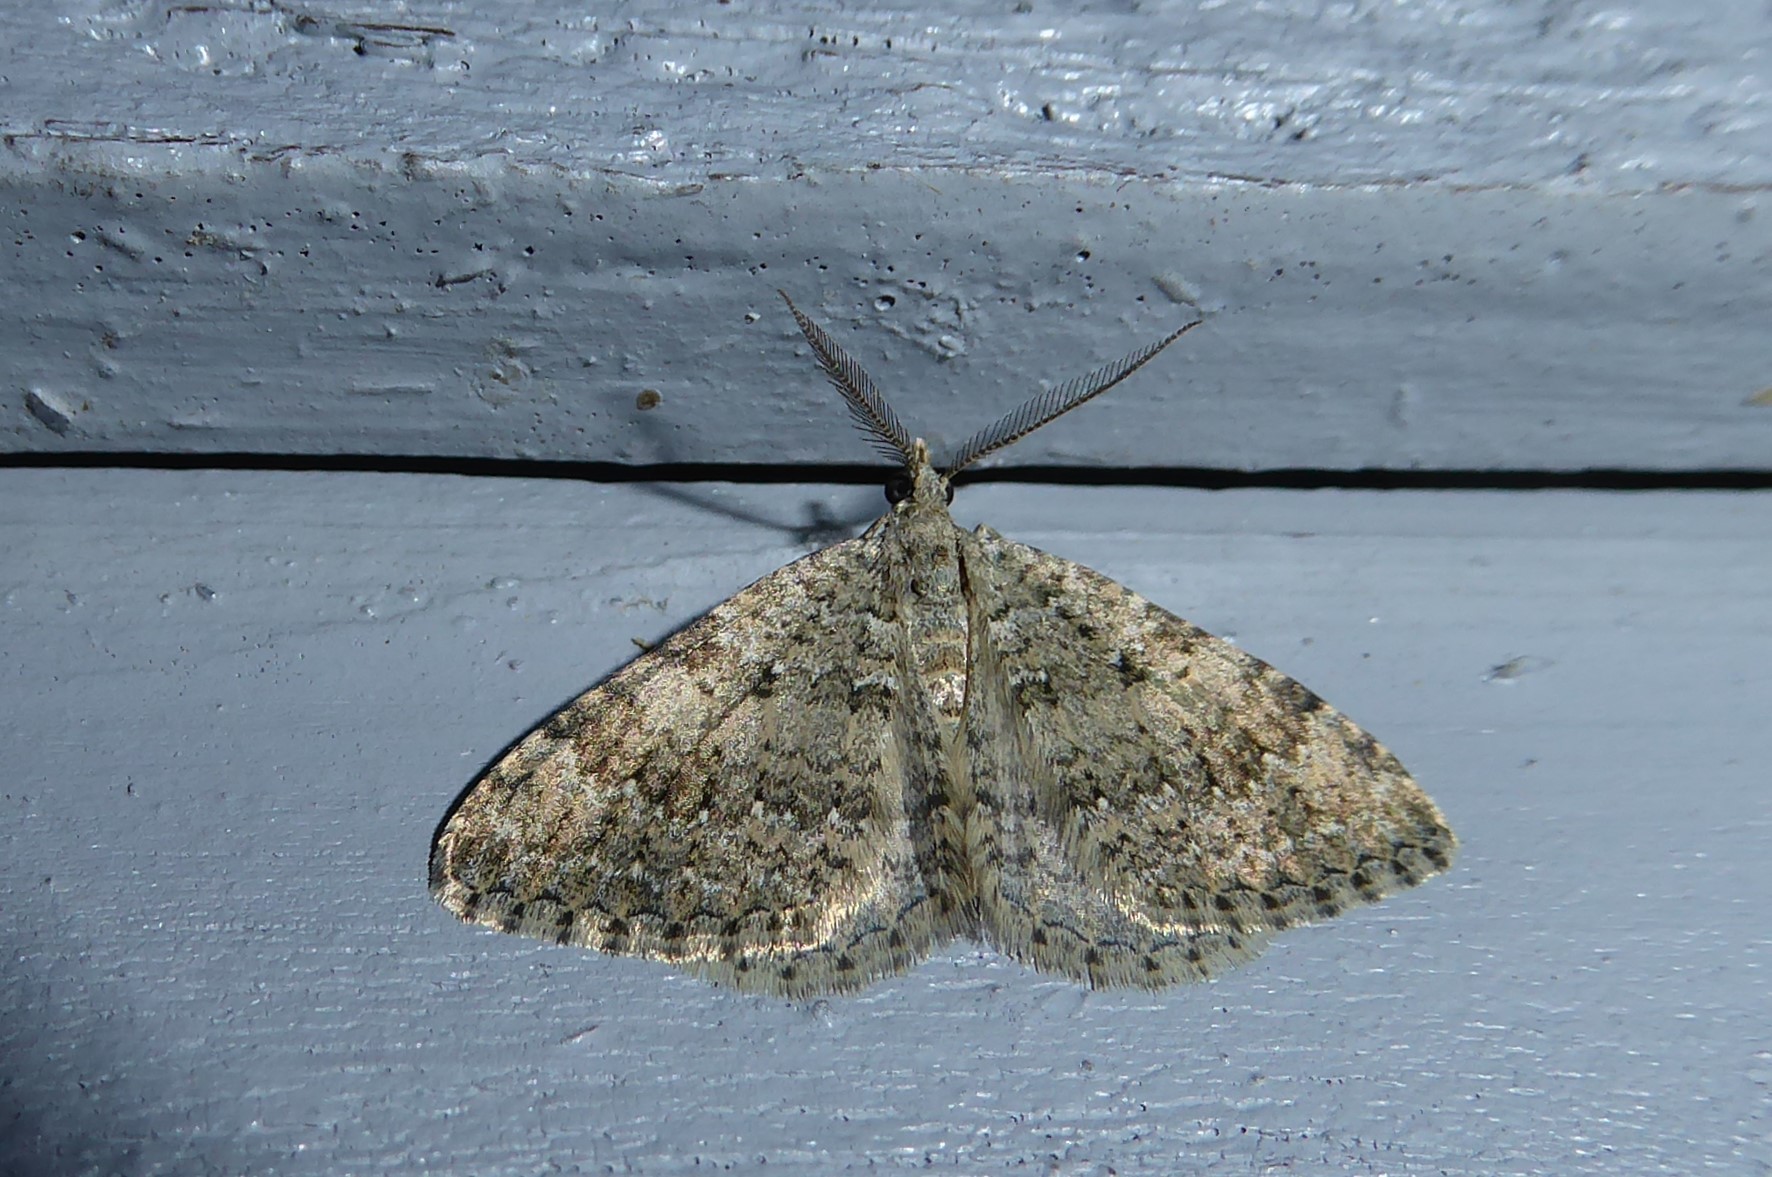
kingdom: Animalia
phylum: Arthropoda
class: Insecta
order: Lepidoptera
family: Geometridae
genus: Helastia
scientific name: Helastia corcularia
